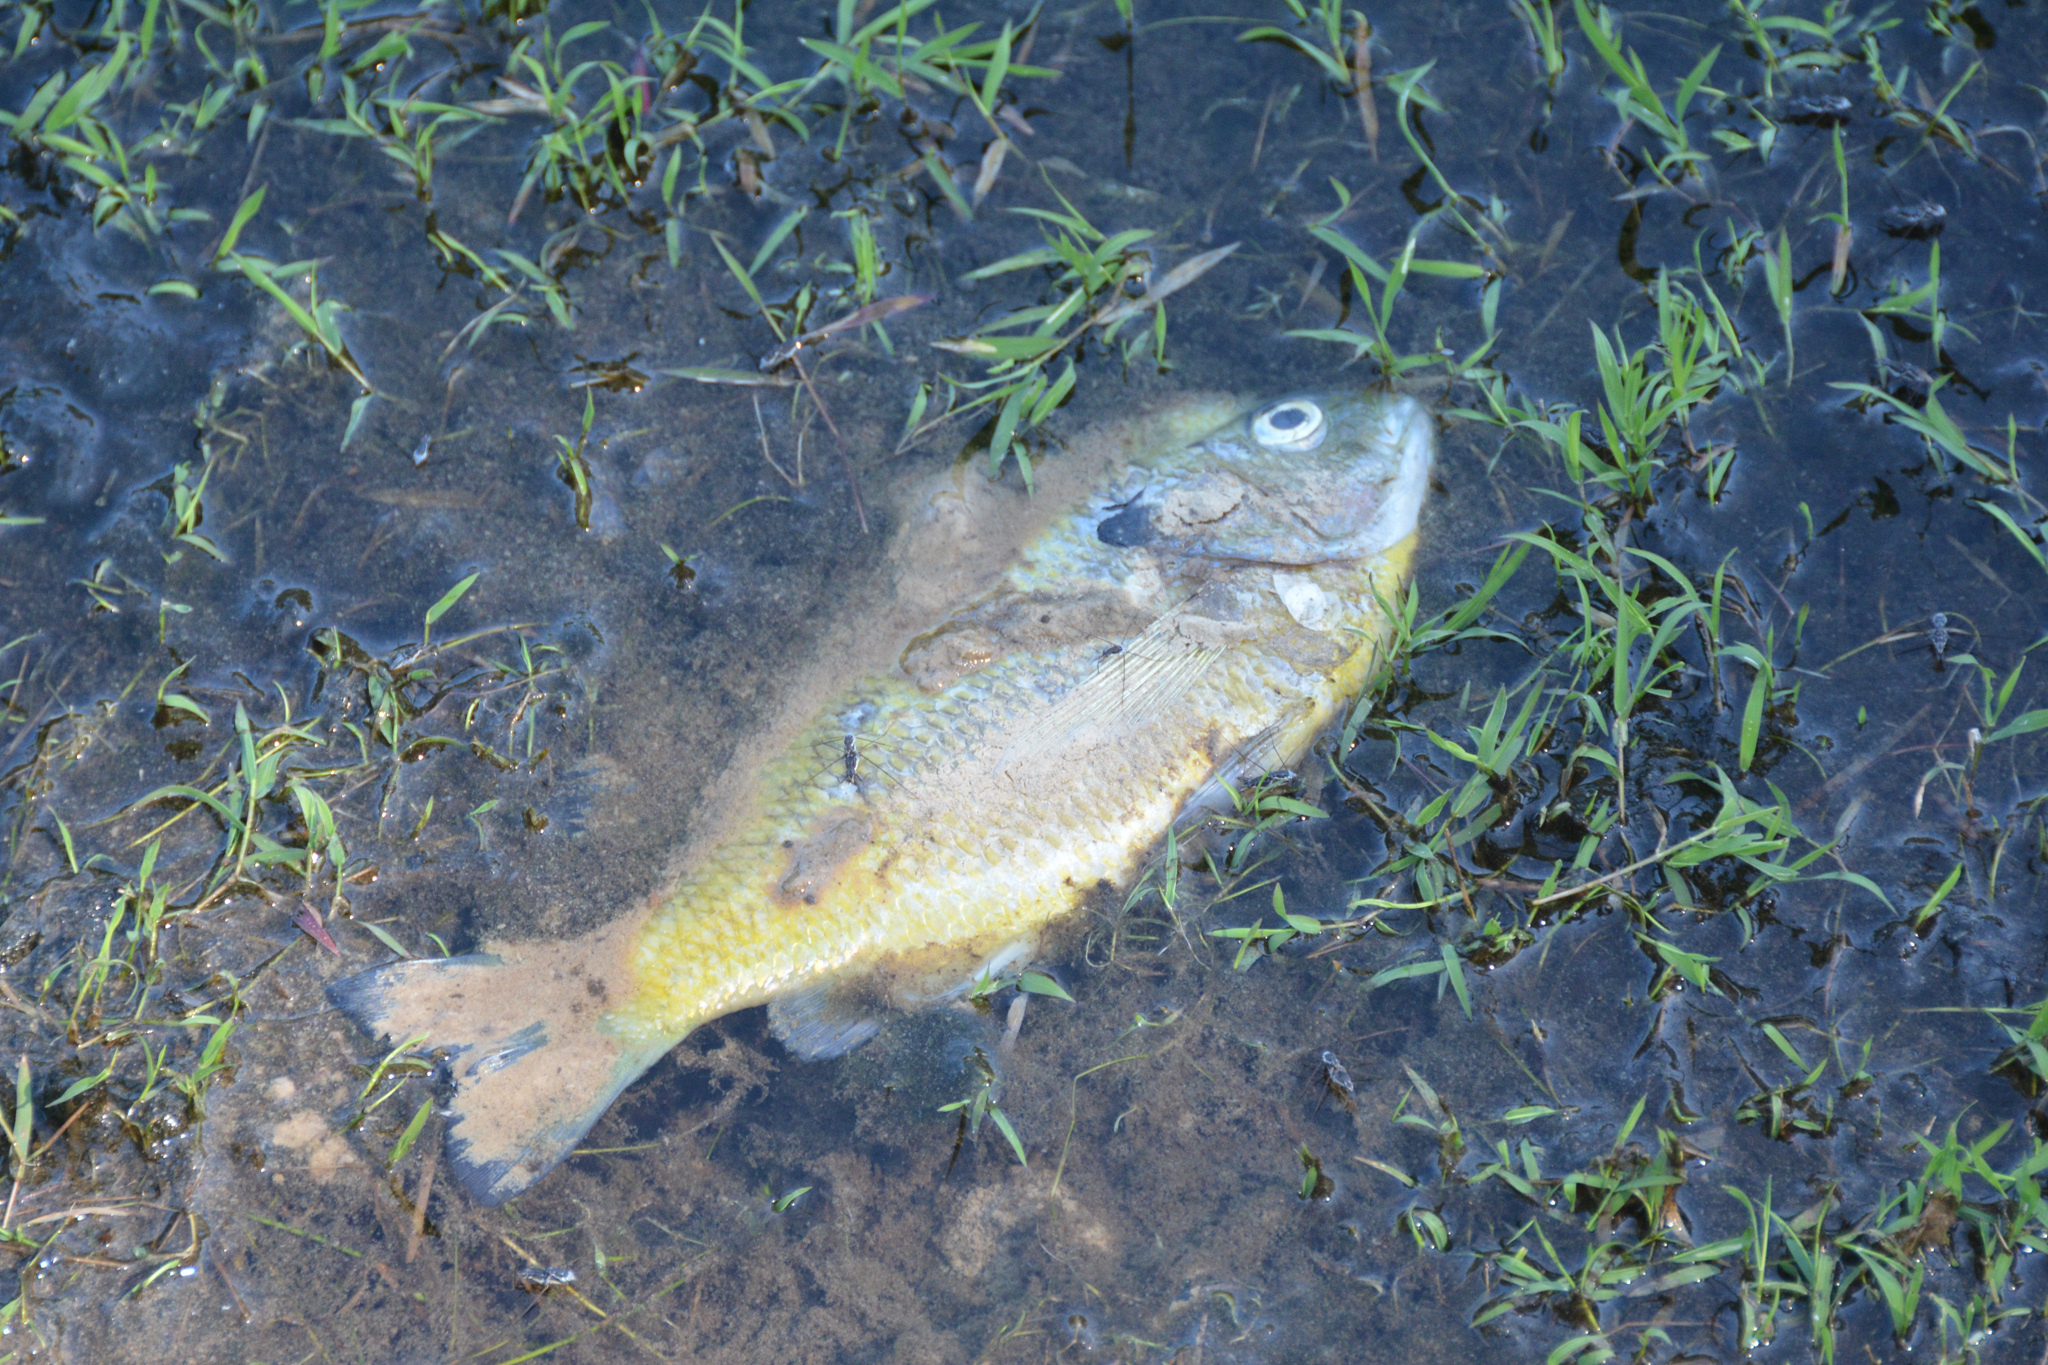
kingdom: Animalia
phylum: Chordata
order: Perciformes
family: Centrarchidae
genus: Lepomis
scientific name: Lepomis macrochirus
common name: Bluegill
